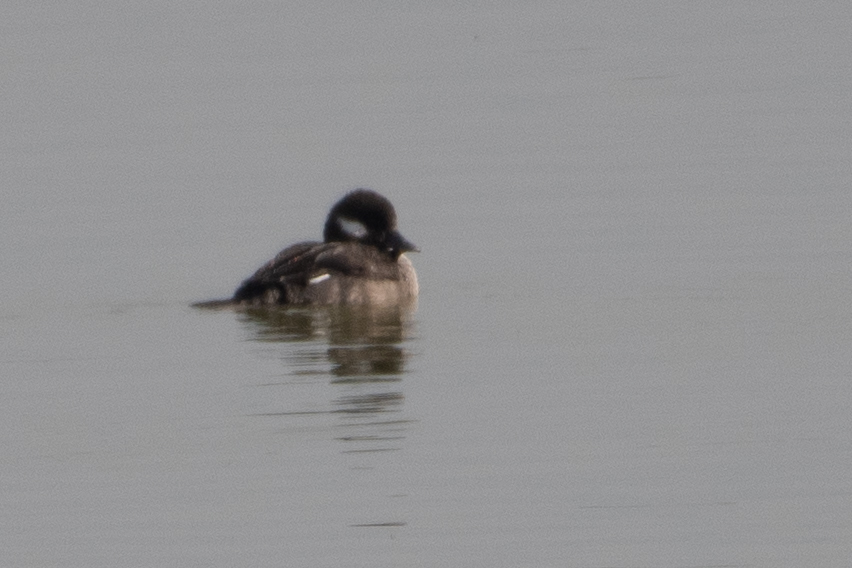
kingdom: Animalia
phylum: Chordata
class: Aves
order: Anseriformes
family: Anatidae
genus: Bucephala
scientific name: Bucephala albeola
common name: Bufflehead
